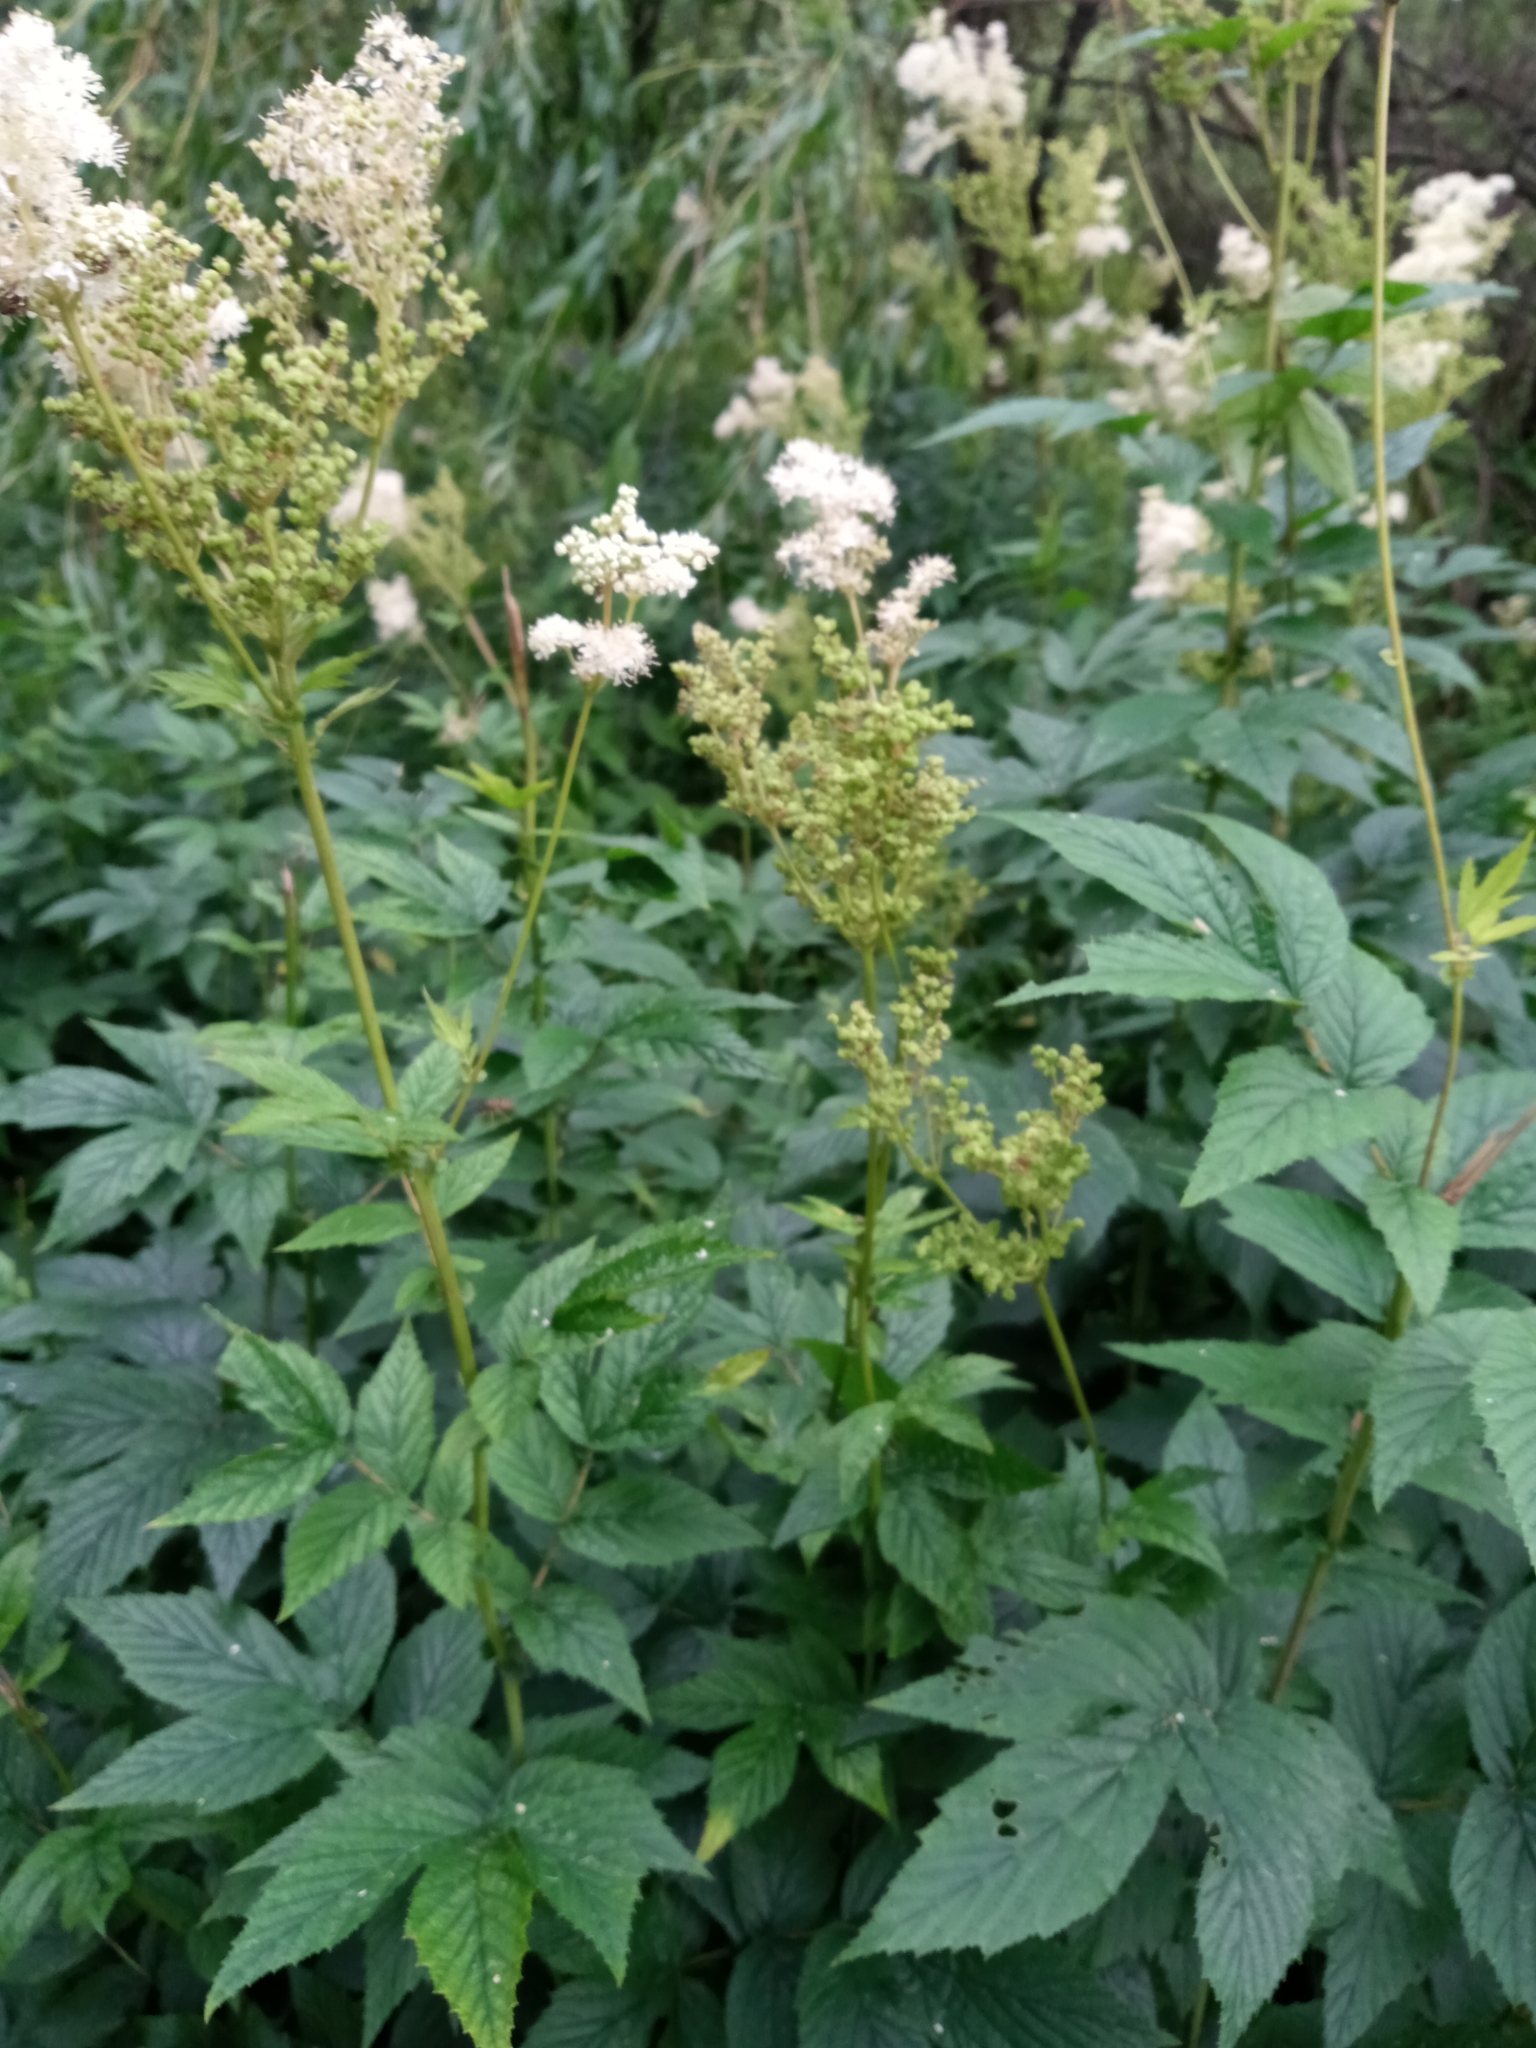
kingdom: Plantae
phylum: Tracheophyta
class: Magnoliopsida
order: Rosales
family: Rosaceae
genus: Filipendula
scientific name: Filipendula ulmaria
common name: Meadowsweet
